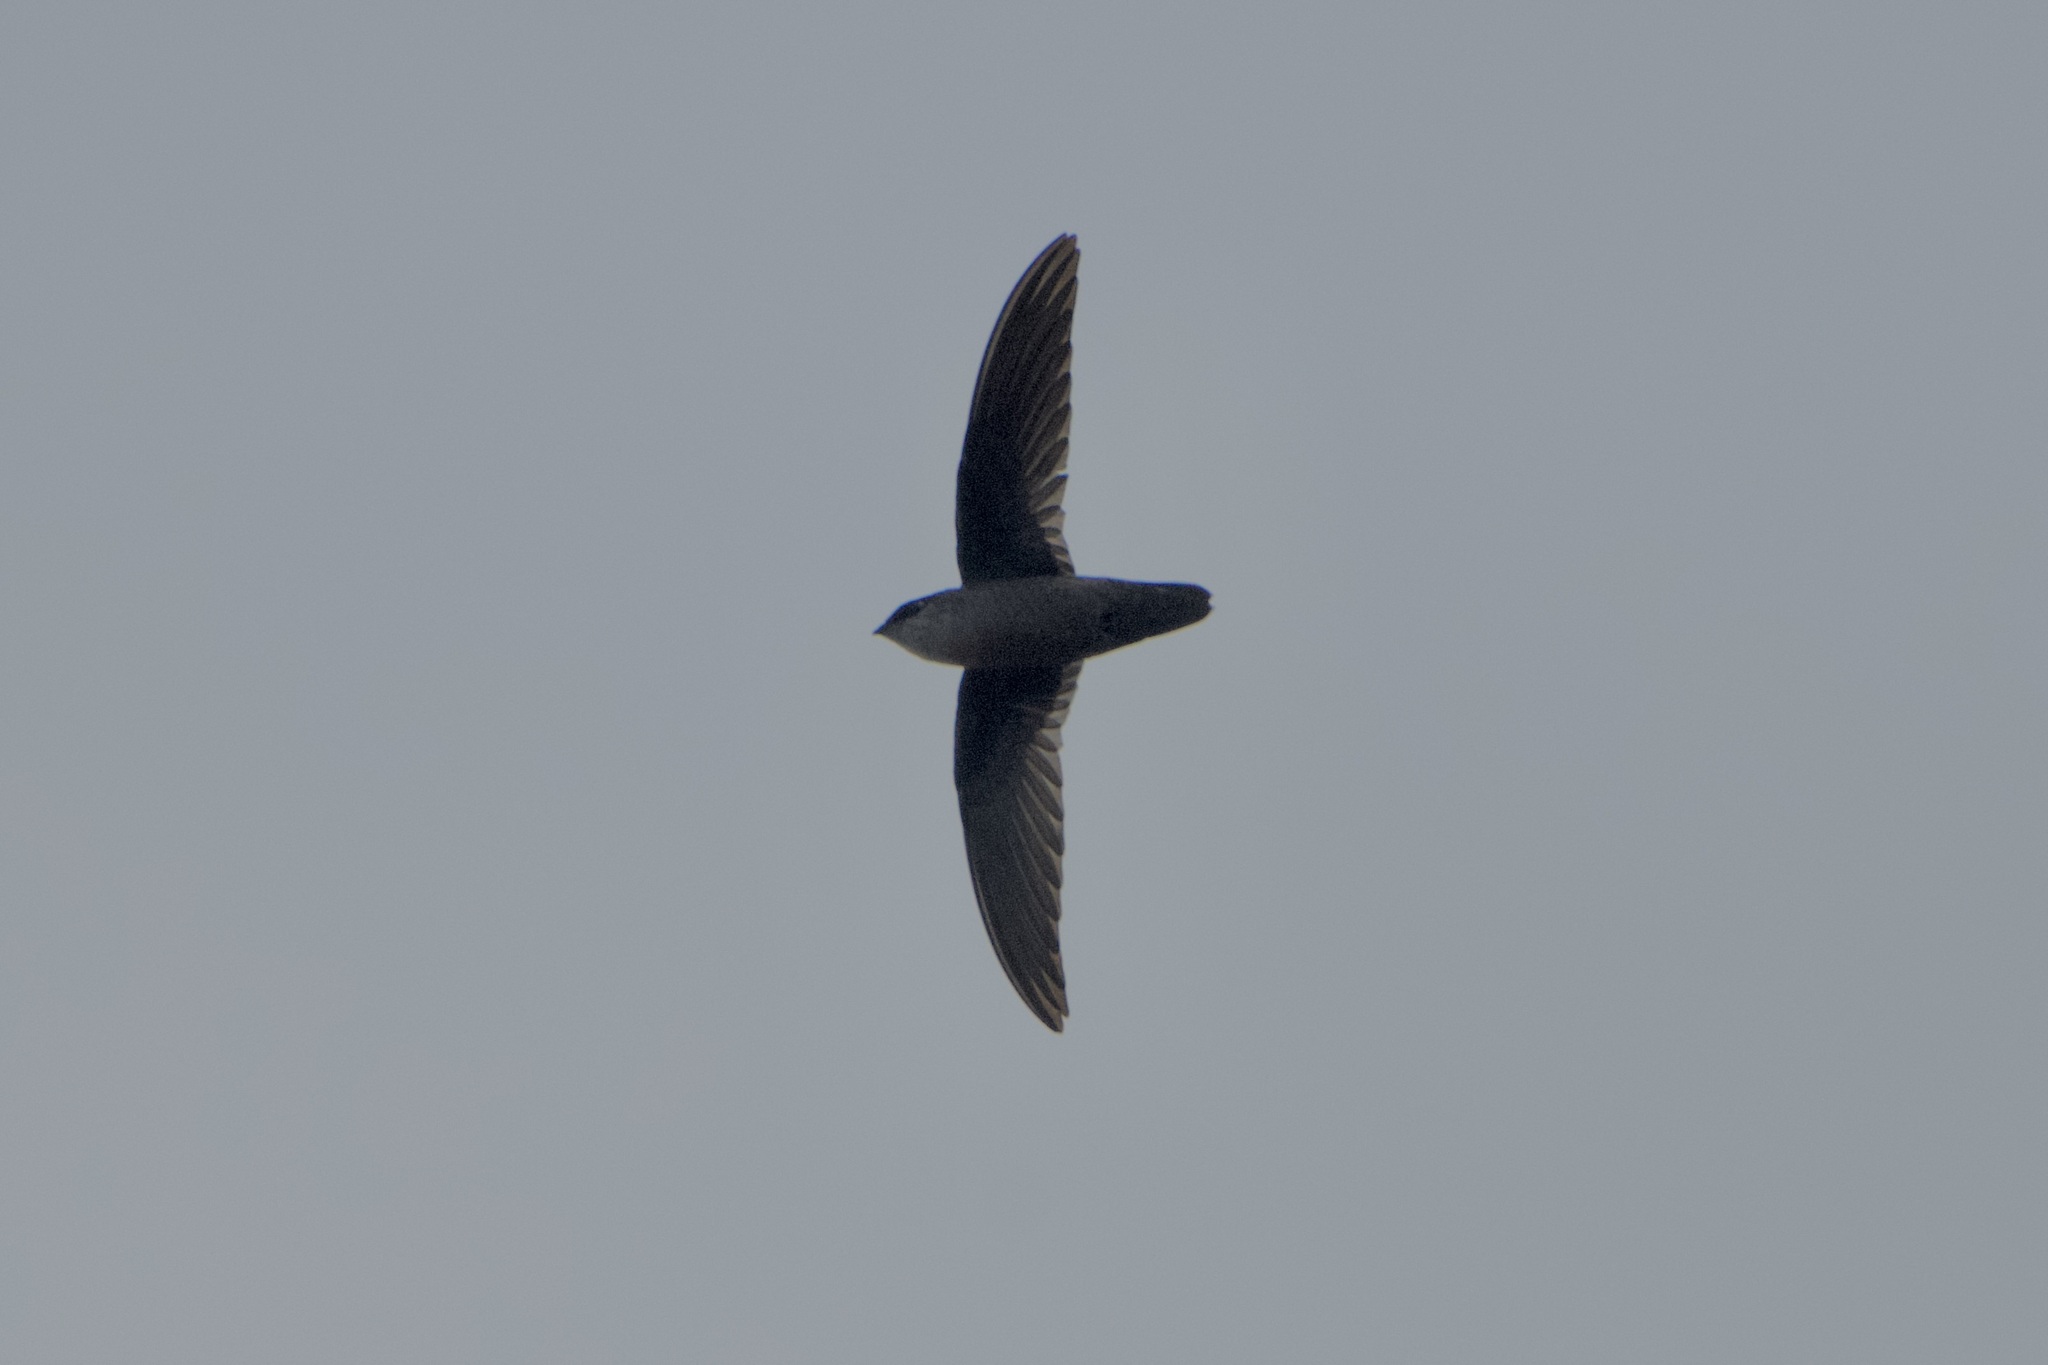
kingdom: Animalia
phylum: Chordata
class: Aves
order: Apodiformes
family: Apodidae
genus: Chaetura
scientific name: Chaetura vauxi
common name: Vaux's swift
